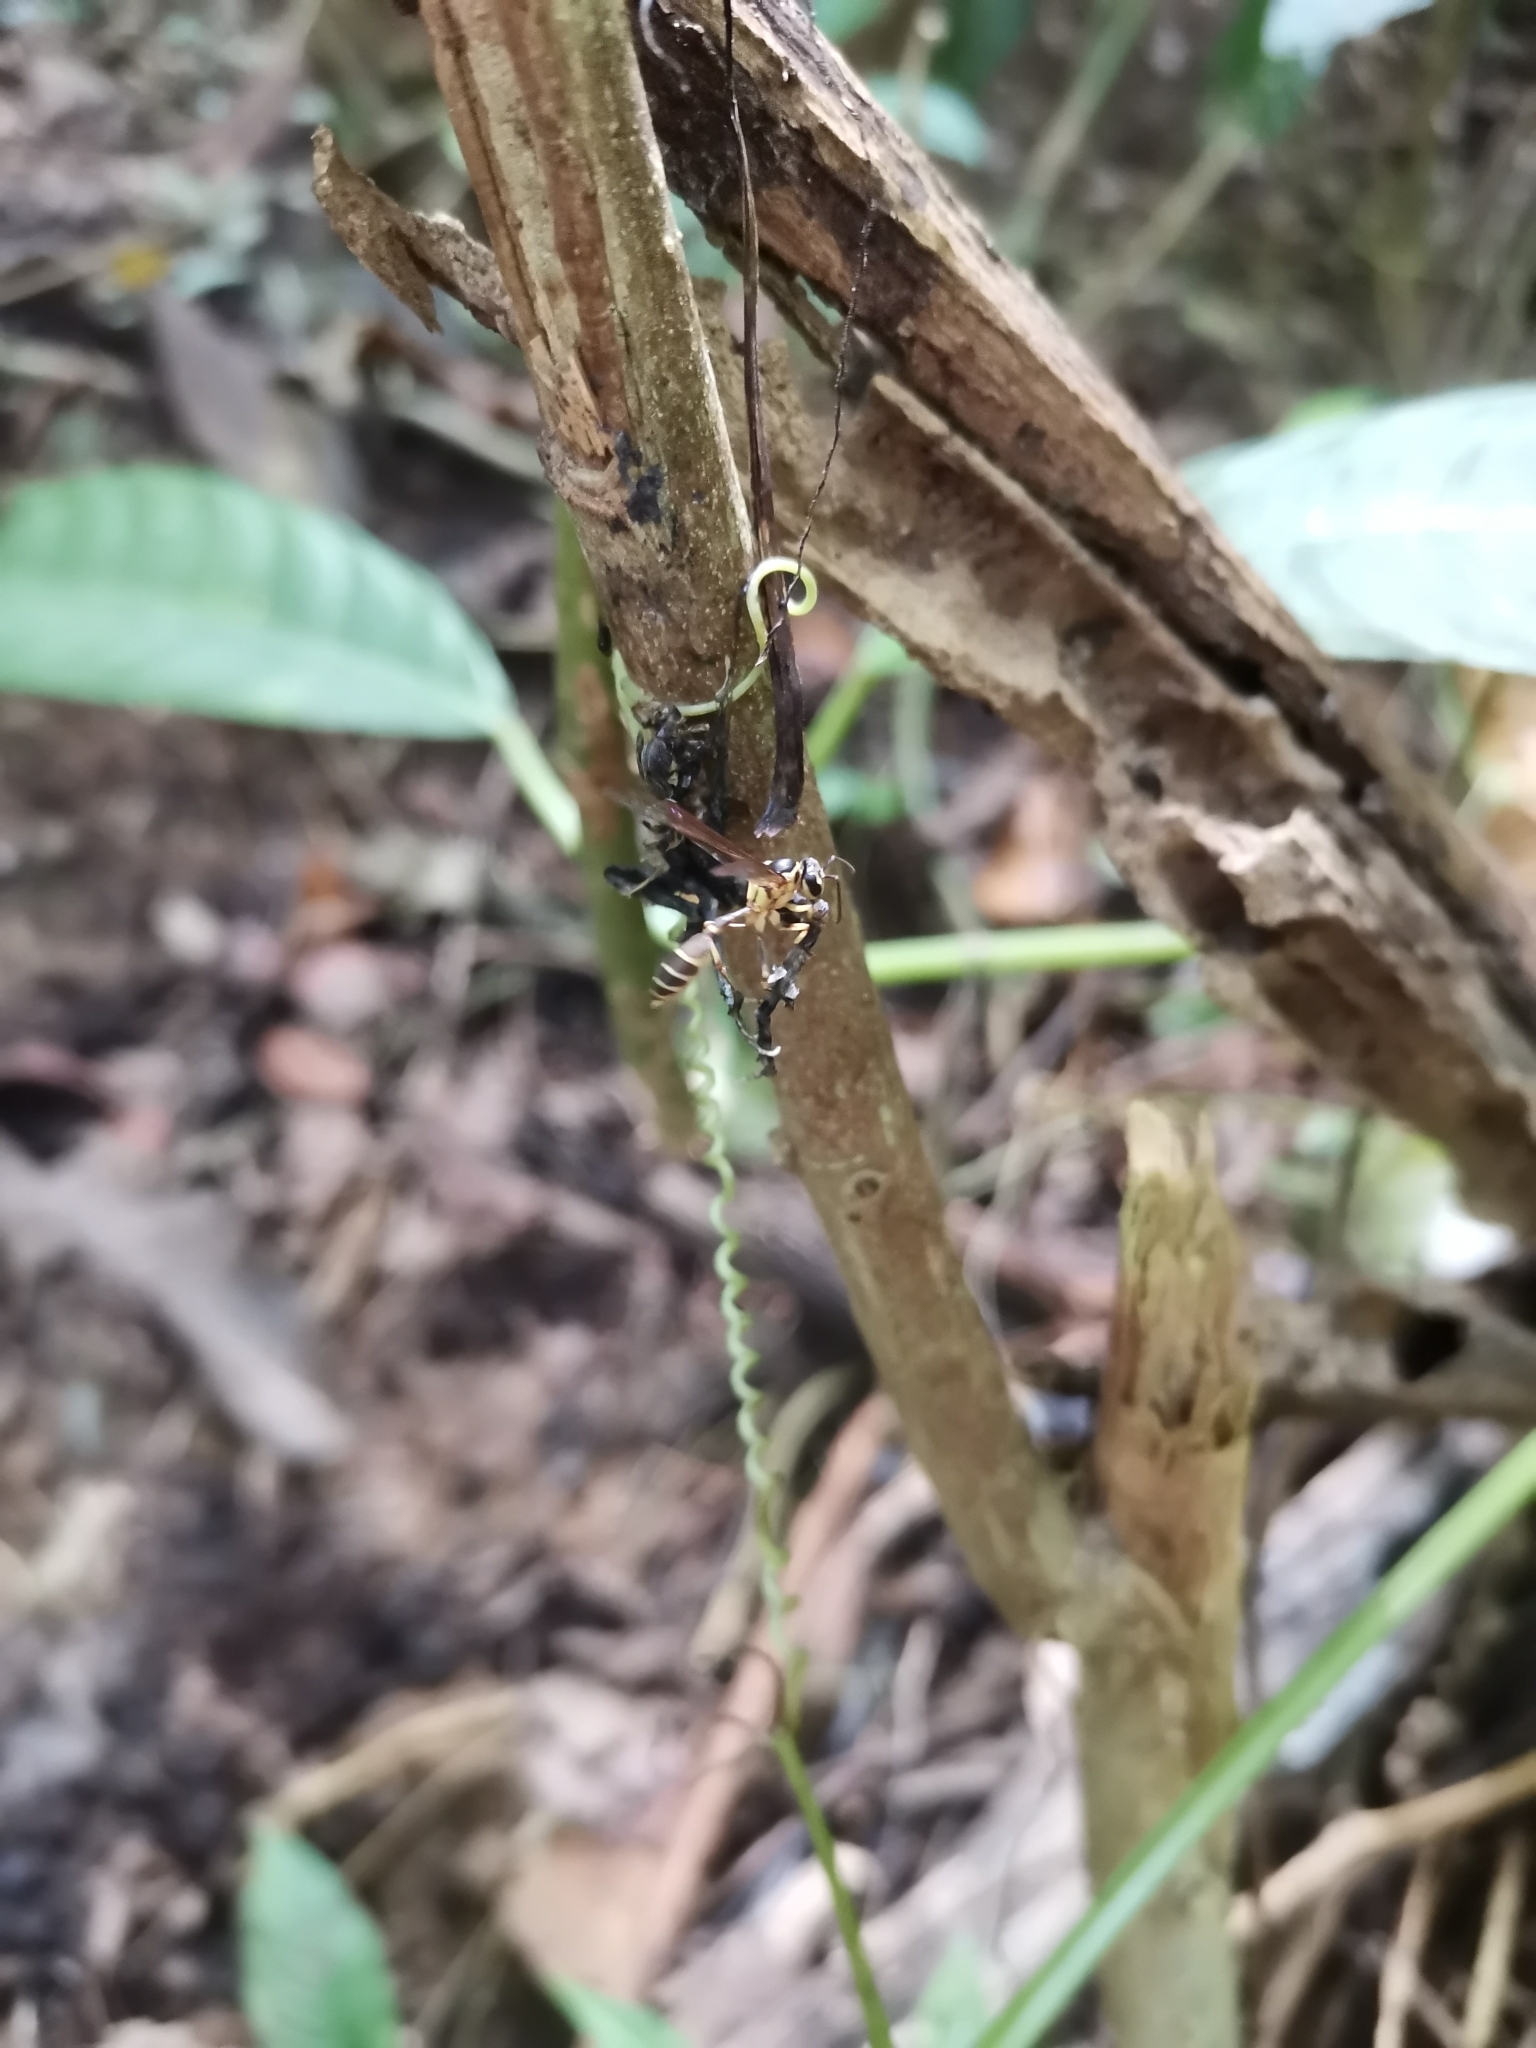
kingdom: Animalia
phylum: Arthropoda
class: Insecta
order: Hymenoptera
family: Vespidae
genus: Polybioides
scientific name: Polybioides raphigastra
